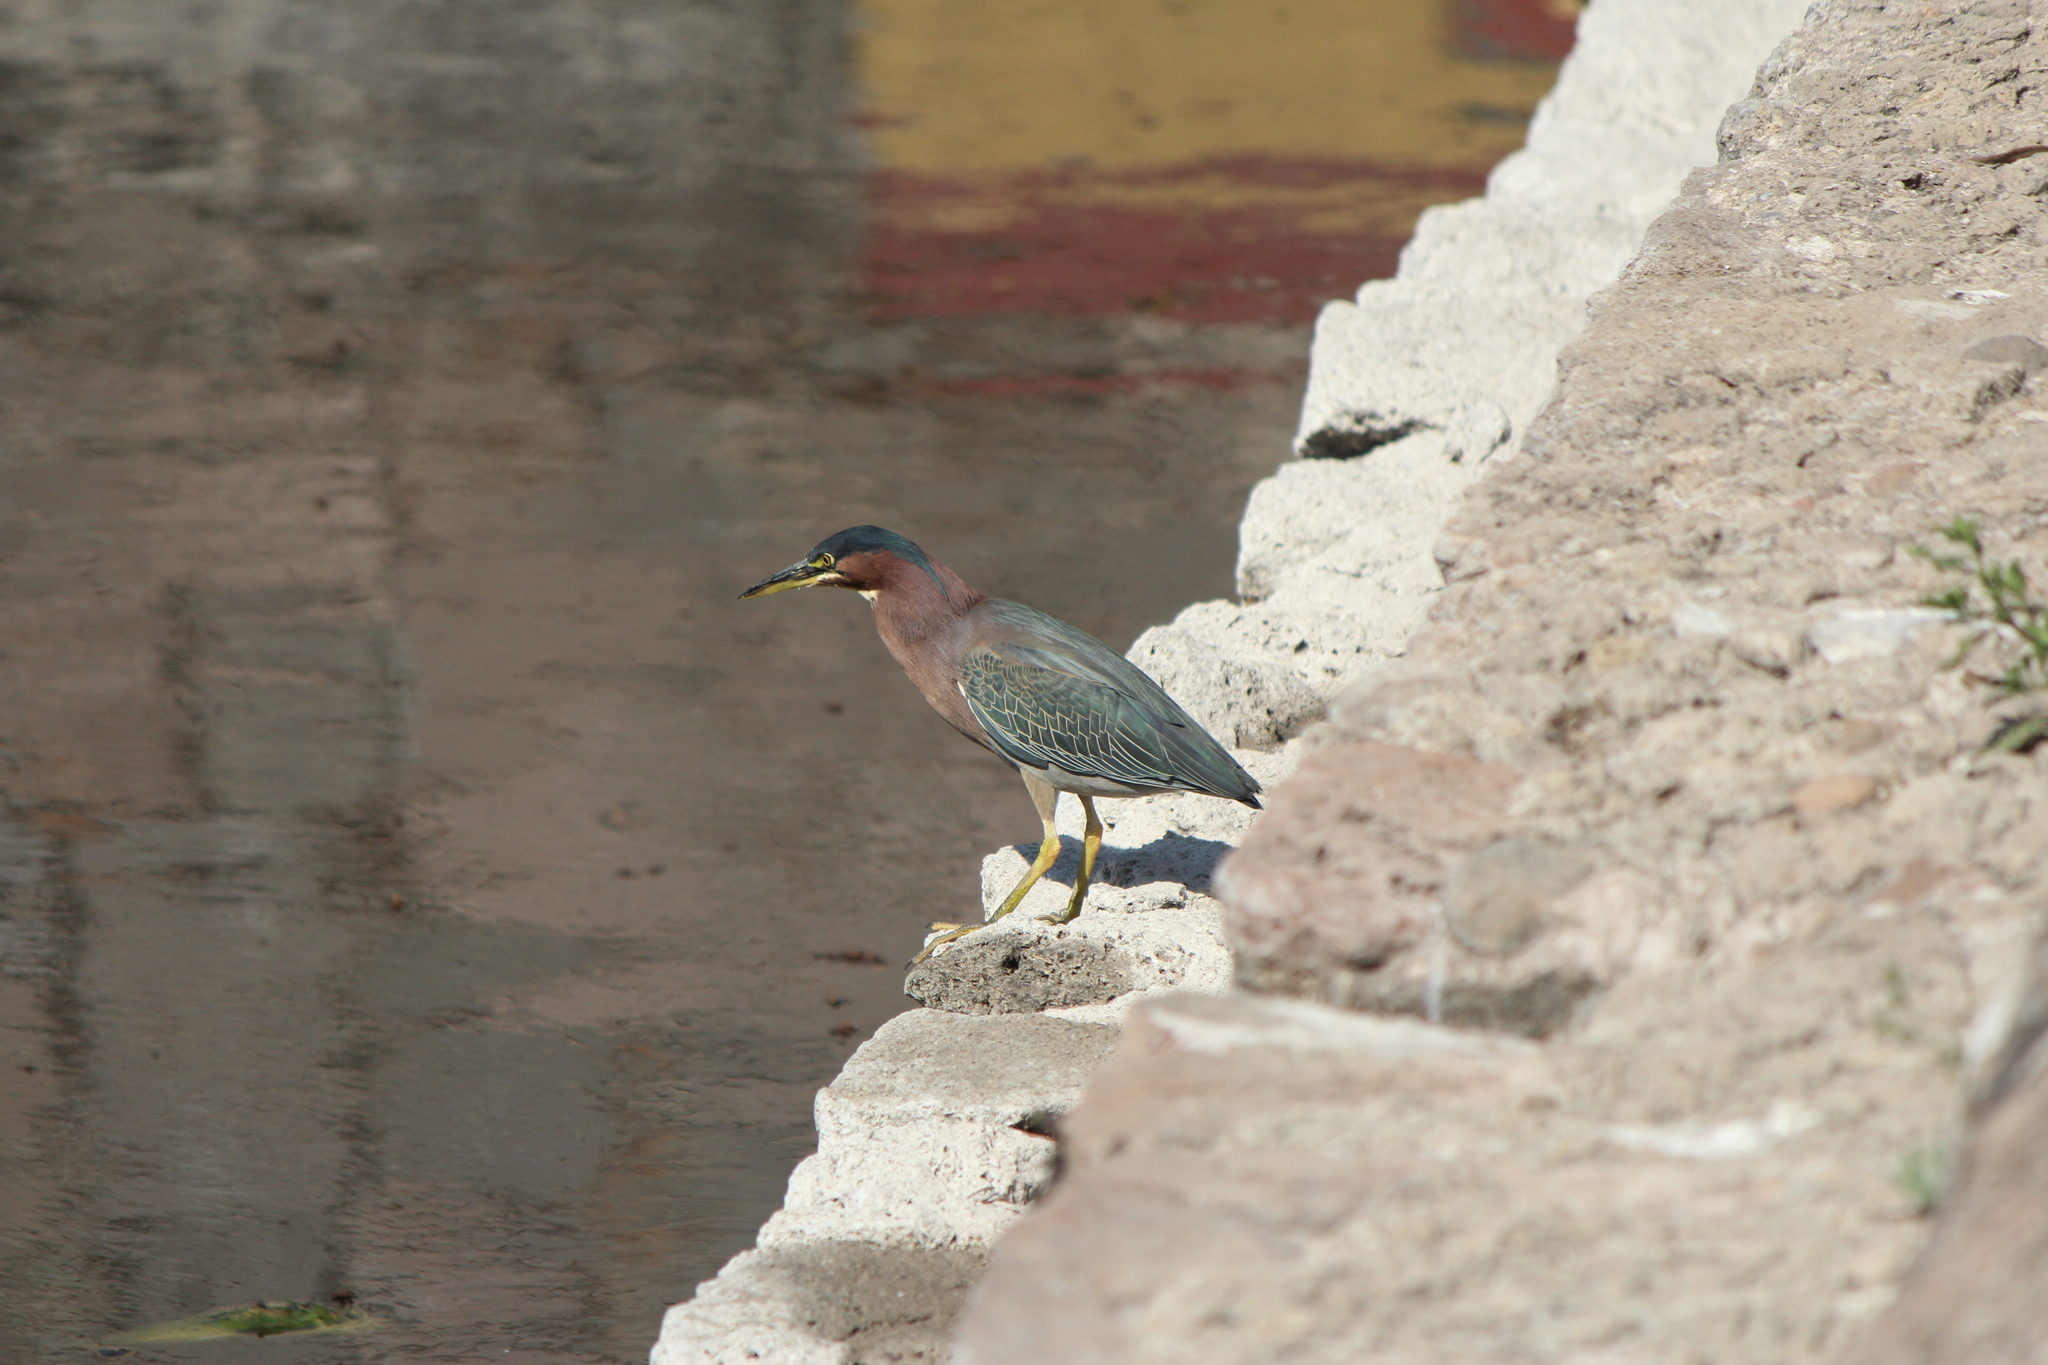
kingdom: Animalia
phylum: Chordata
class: Aves
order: Pelecaniformes
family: Ardeidae
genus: Butorides
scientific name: Butorides virescens
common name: Green heron
